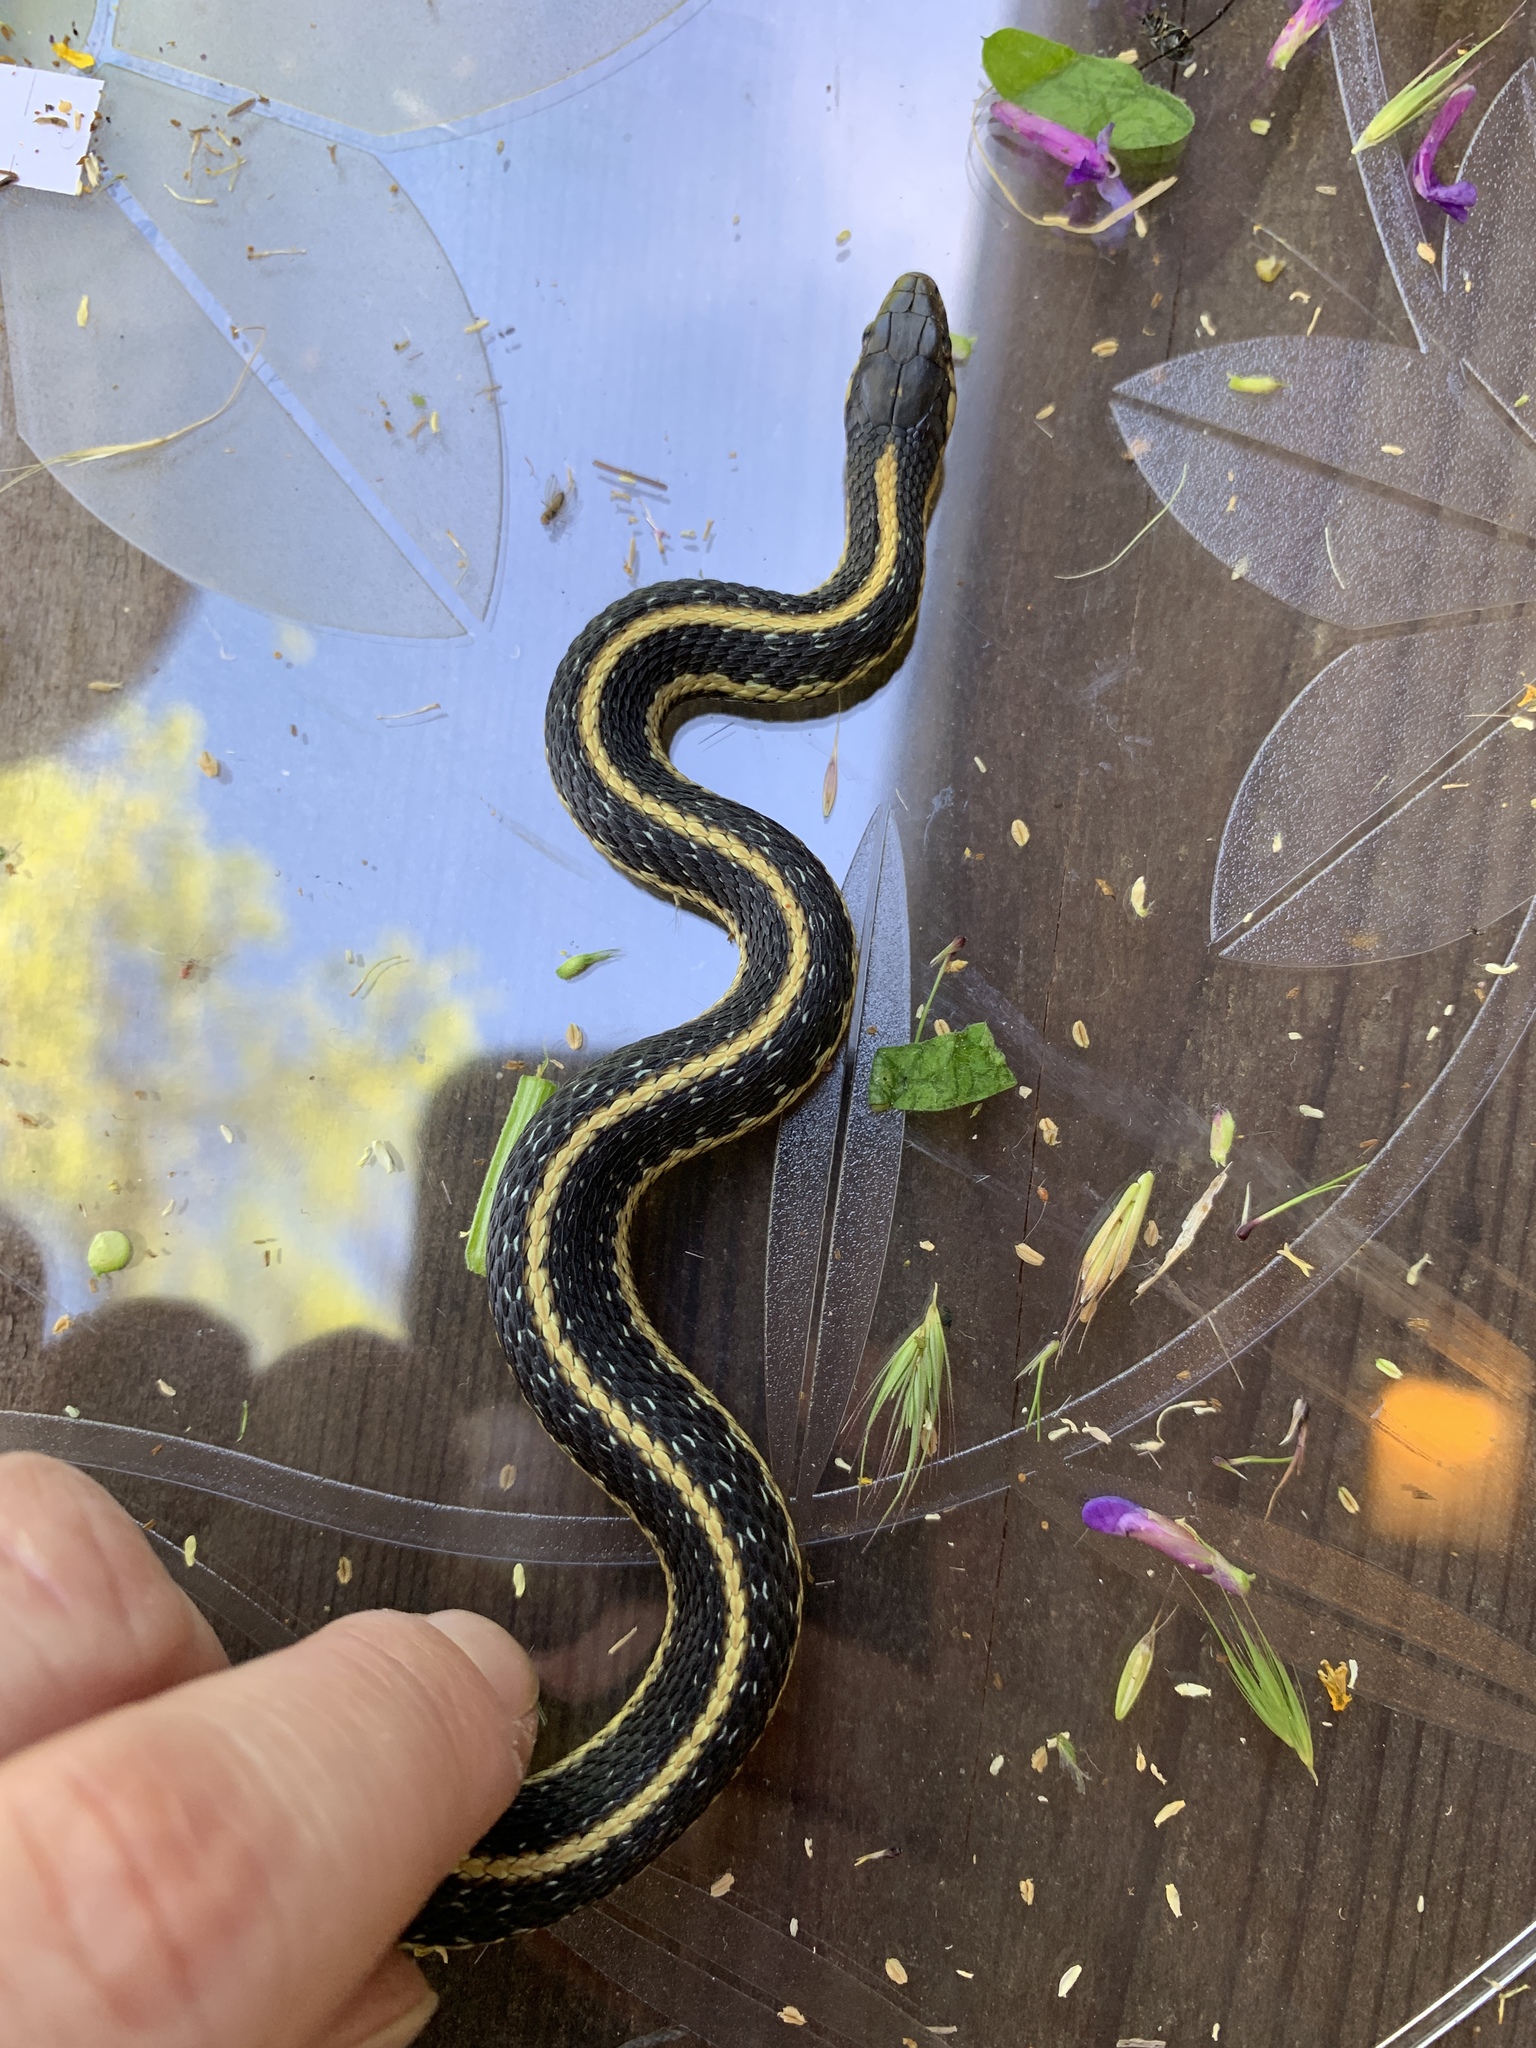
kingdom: Animalia
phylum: Chordata
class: Squamata
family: Colubridae
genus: Thamnophis
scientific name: Thamnophis atratus
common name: Pacific coast aquatic garter snake
